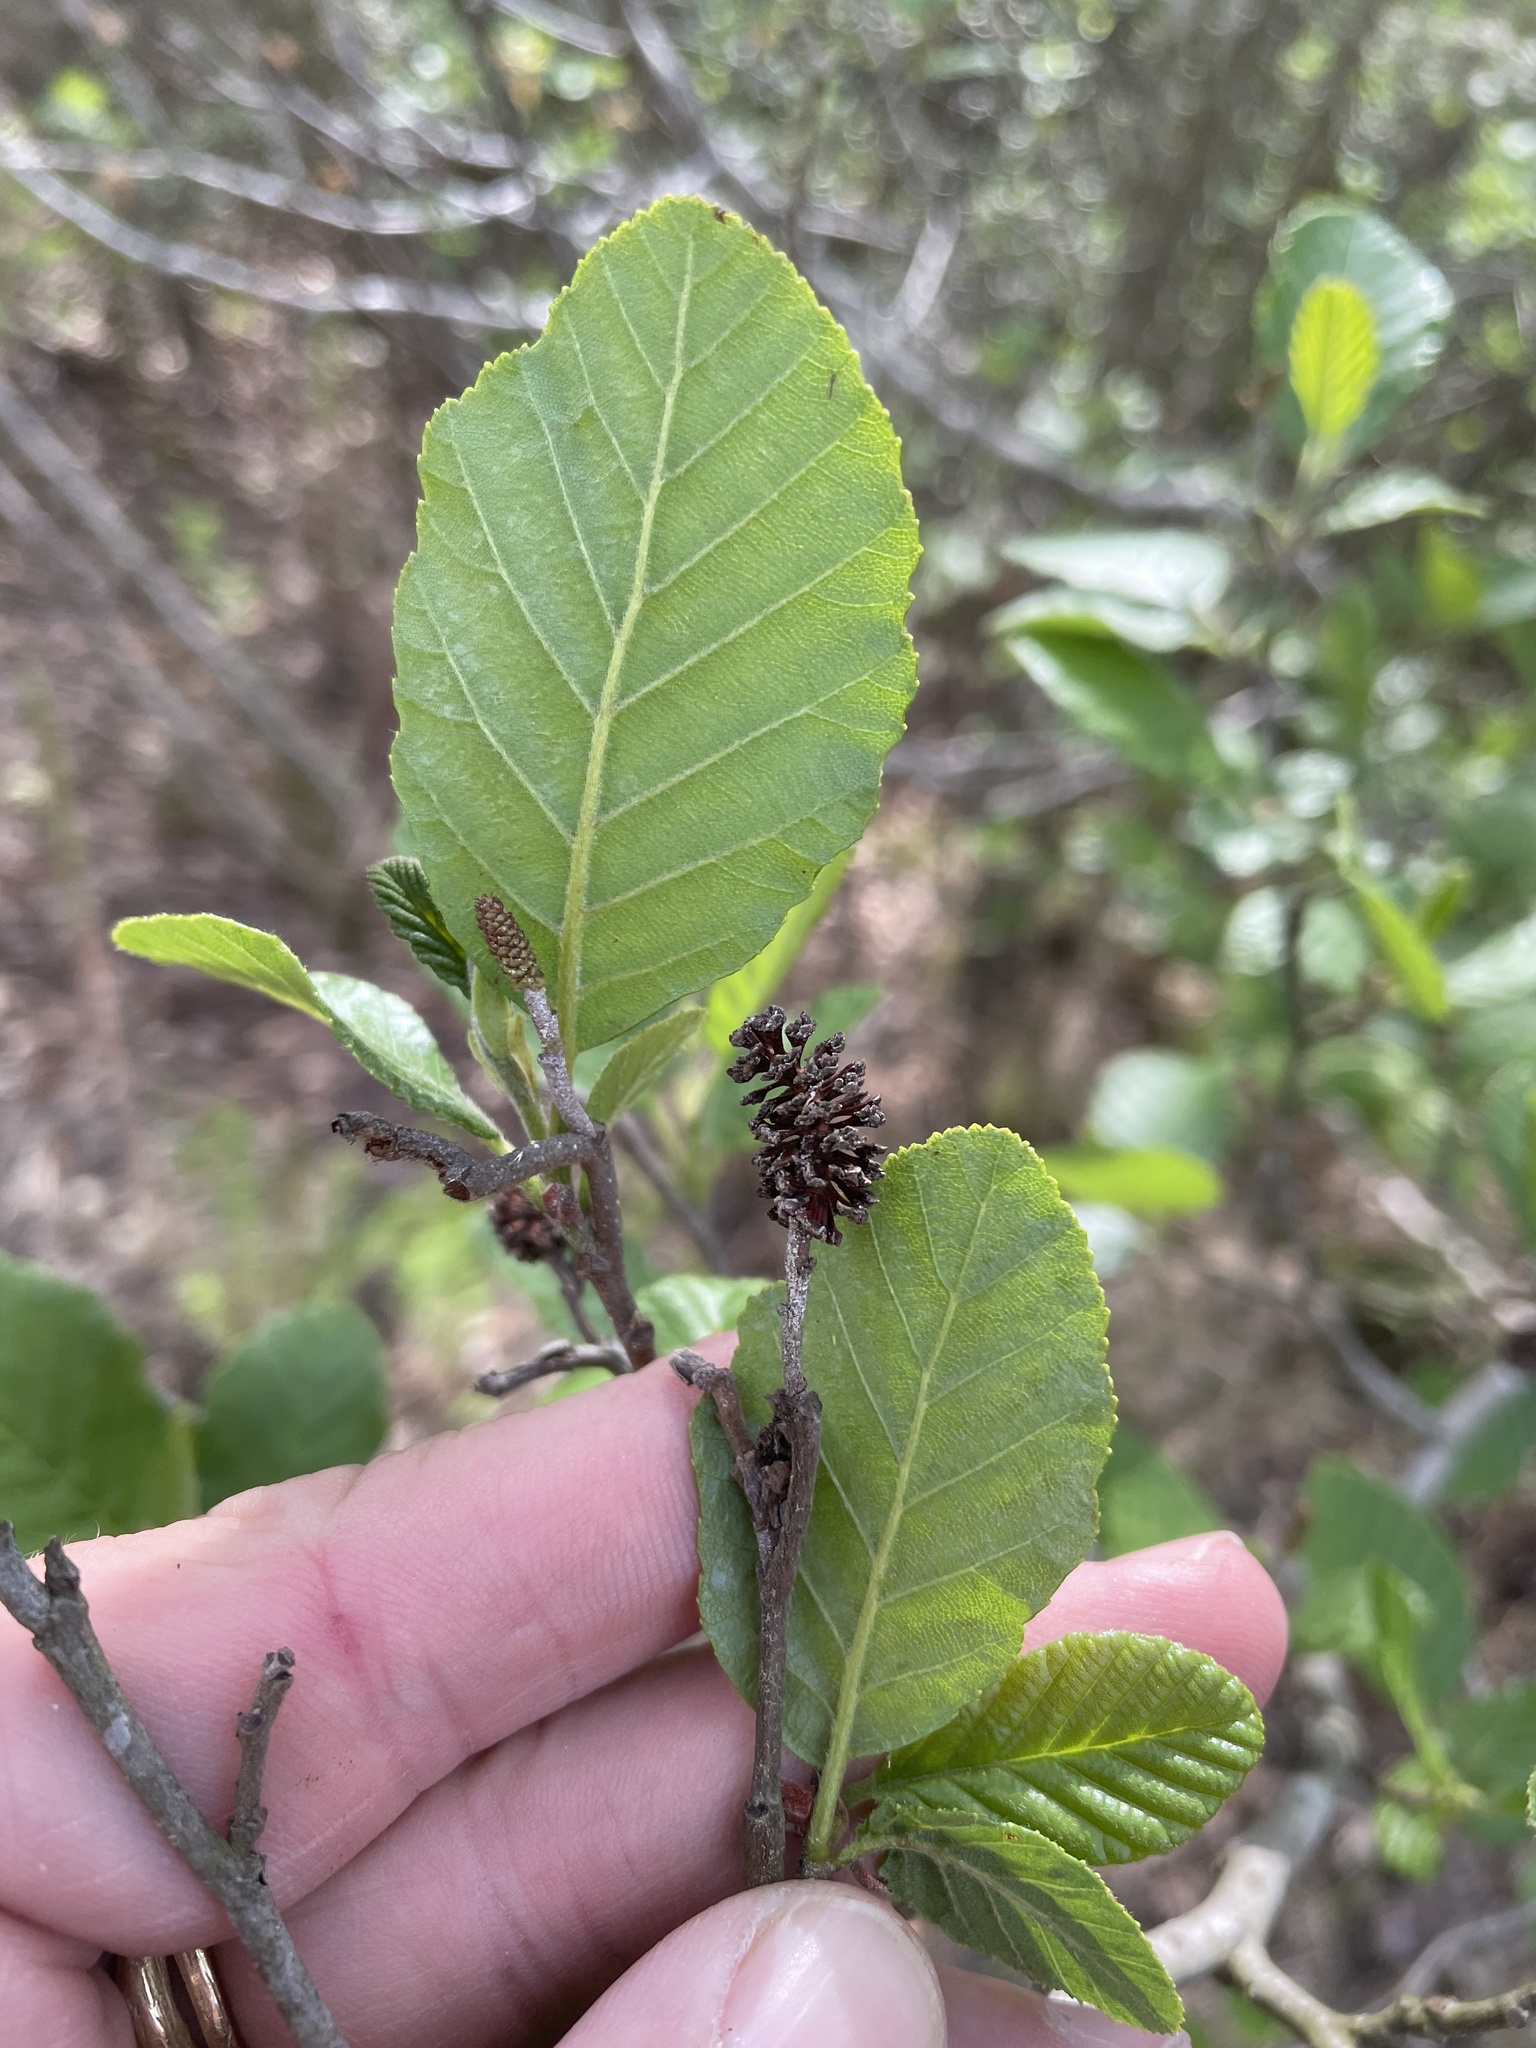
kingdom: Plantae
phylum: Tracheophyta
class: Magnoliopsida
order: Fagales
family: Betulaceae
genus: Alnus
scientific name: Alnus serrulata
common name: Hazel alder
